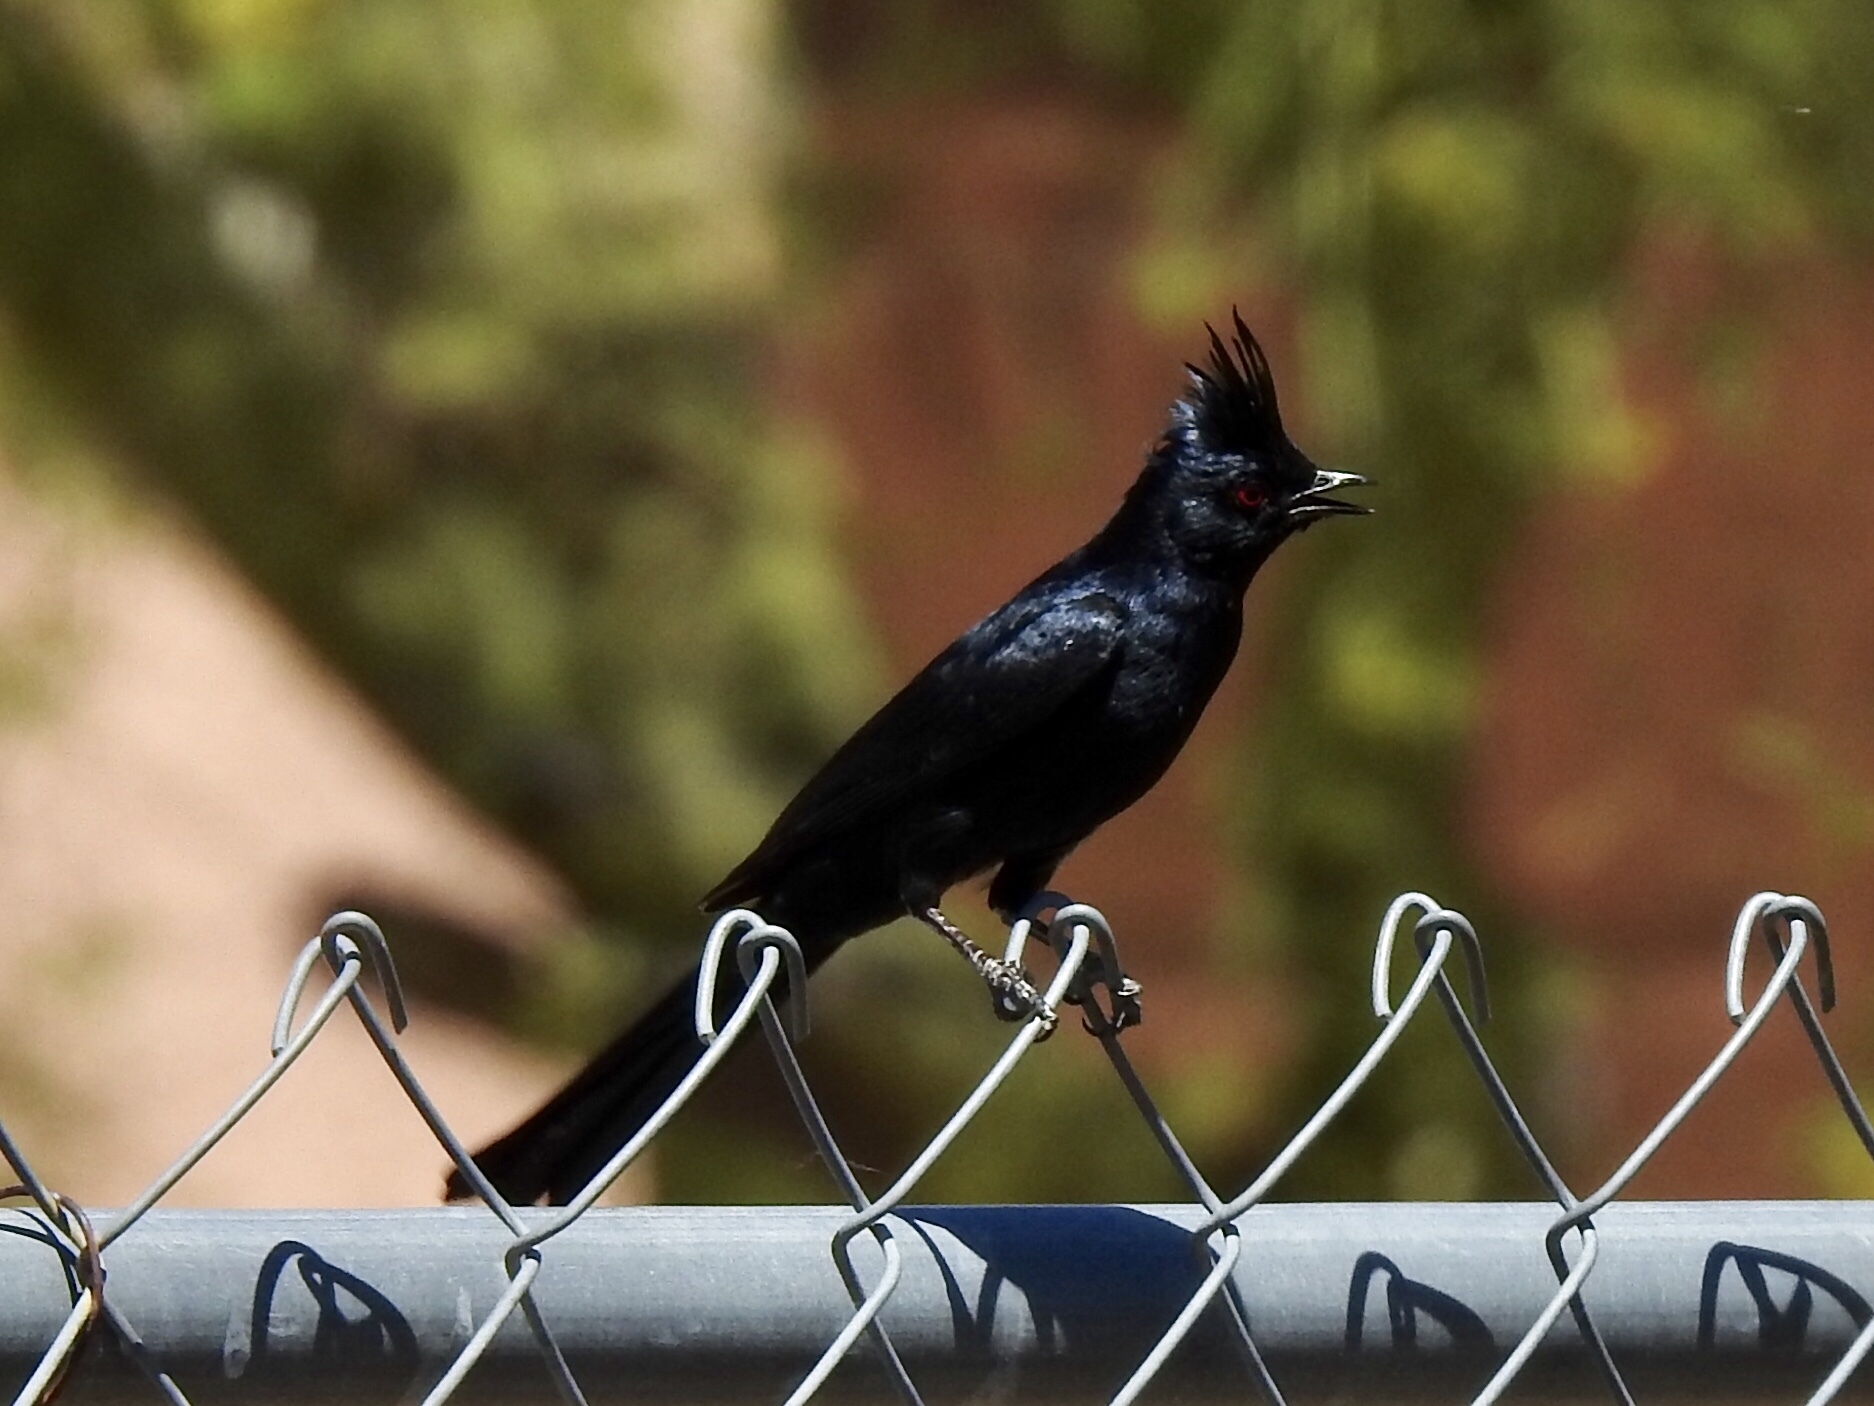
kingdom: Animalia
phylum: Chordata
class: Aves
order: Passeriformes
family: Ptilogonatidae
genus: Phainopepla
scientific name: Phainopepla nitens
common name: Phainopepla
